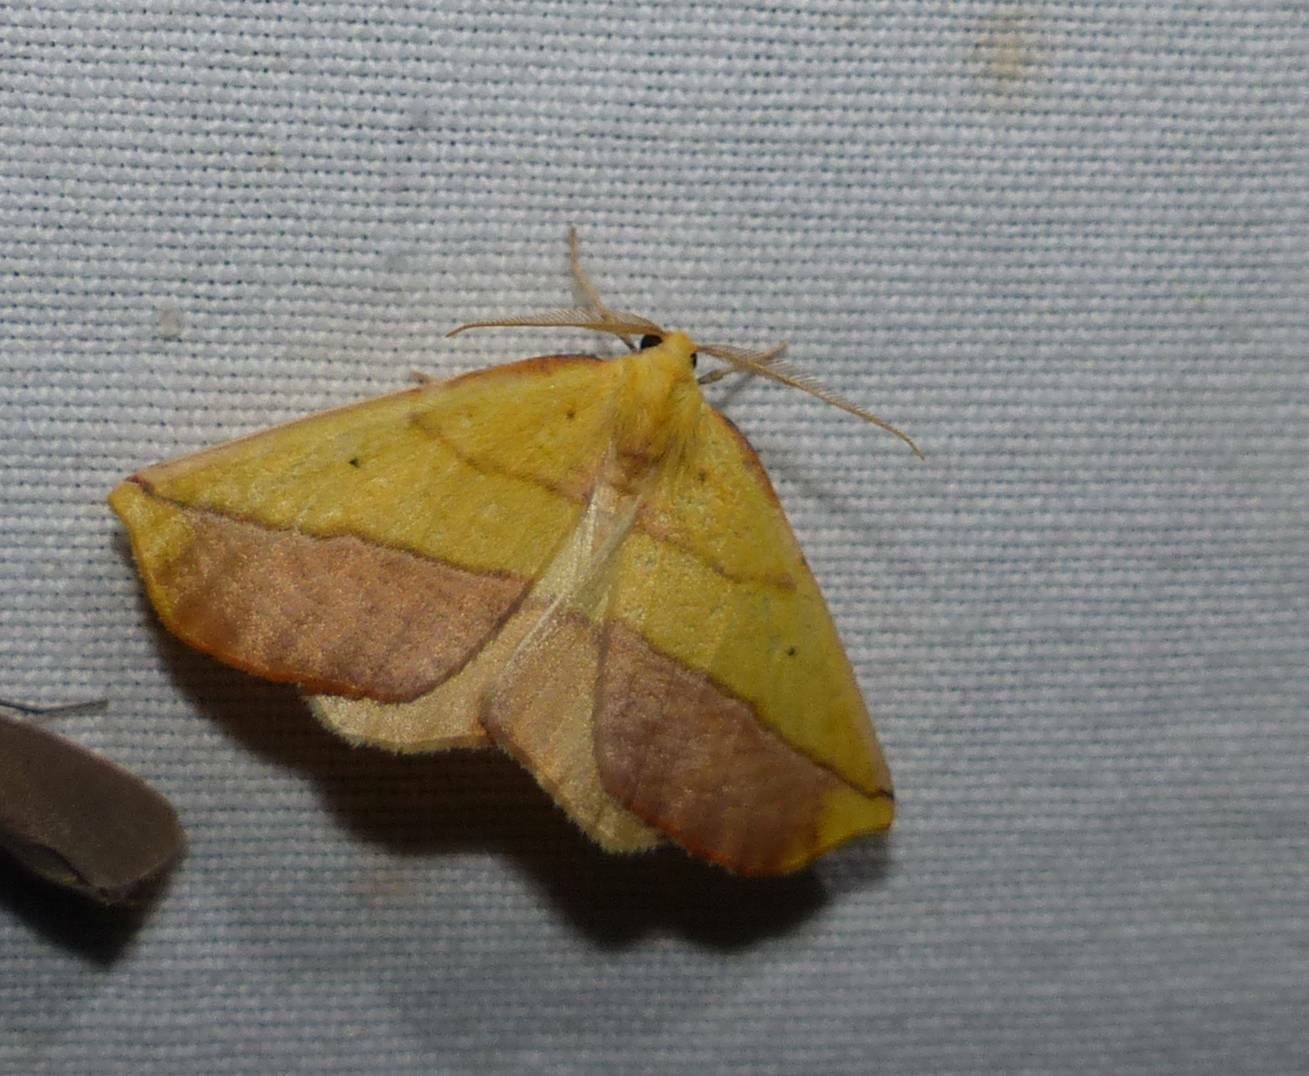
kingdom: Animalia
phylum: Arthropoda
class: Insecta
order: Lepidoptera
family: Geometridae
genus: Sicya
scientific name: Sicya macularia
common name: Sharp-lined yellow
